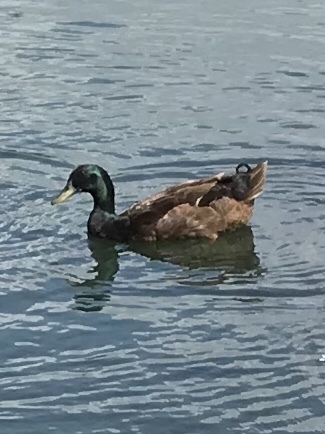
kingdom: Animalia
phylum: Chordata
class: Aves
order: Anseriformes
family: Anatidae
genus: Anas
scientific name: Anas platyrhynchos
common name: Mallard
